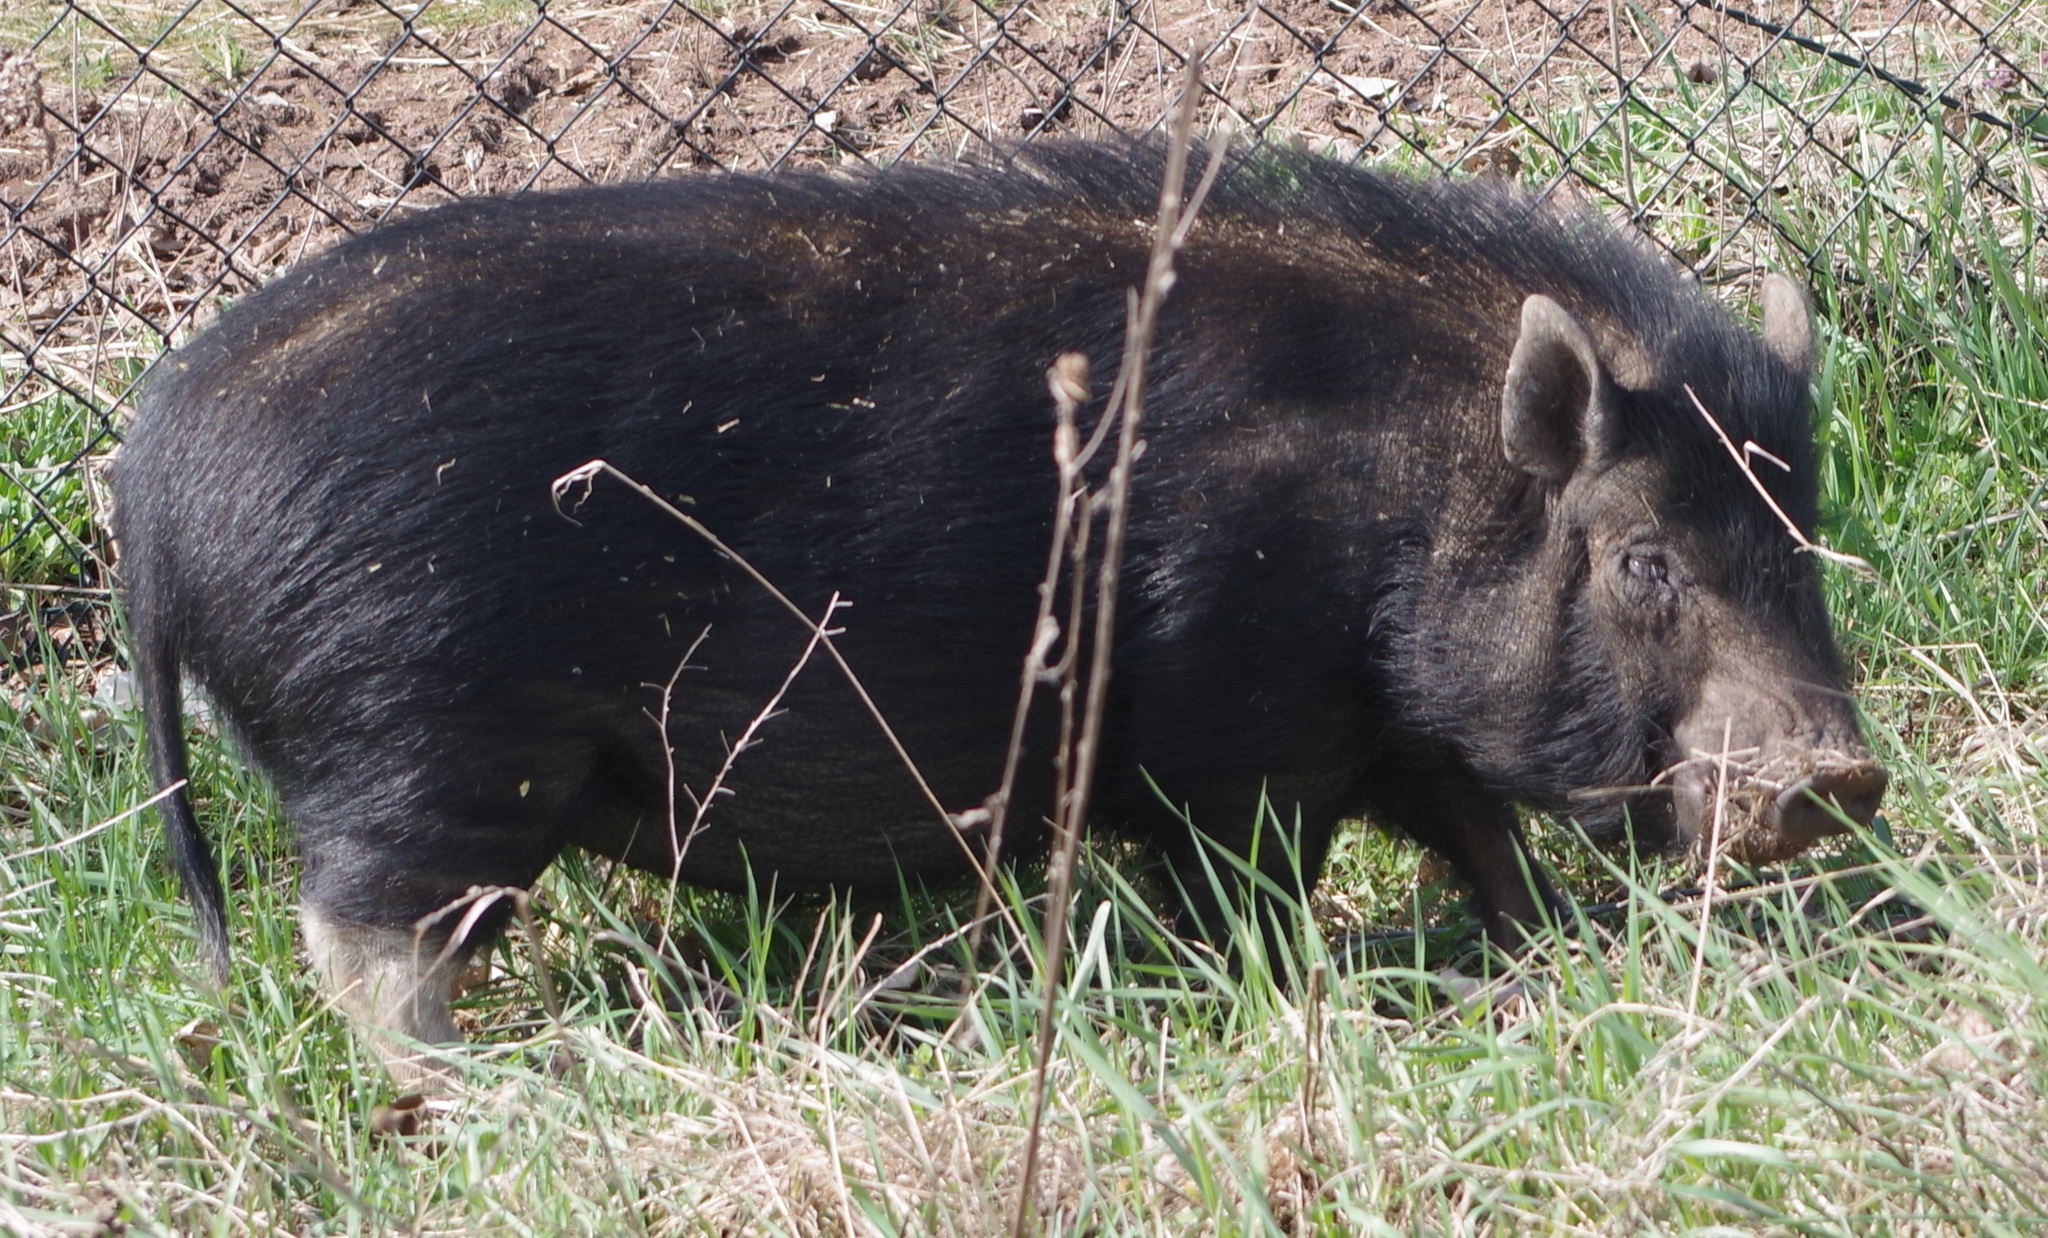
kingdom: Animalia
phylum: Chordata
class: Mammalia
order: Artiodactyla
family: Suidae
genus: Sus
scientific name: Sus scrofa
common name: Wild boar
